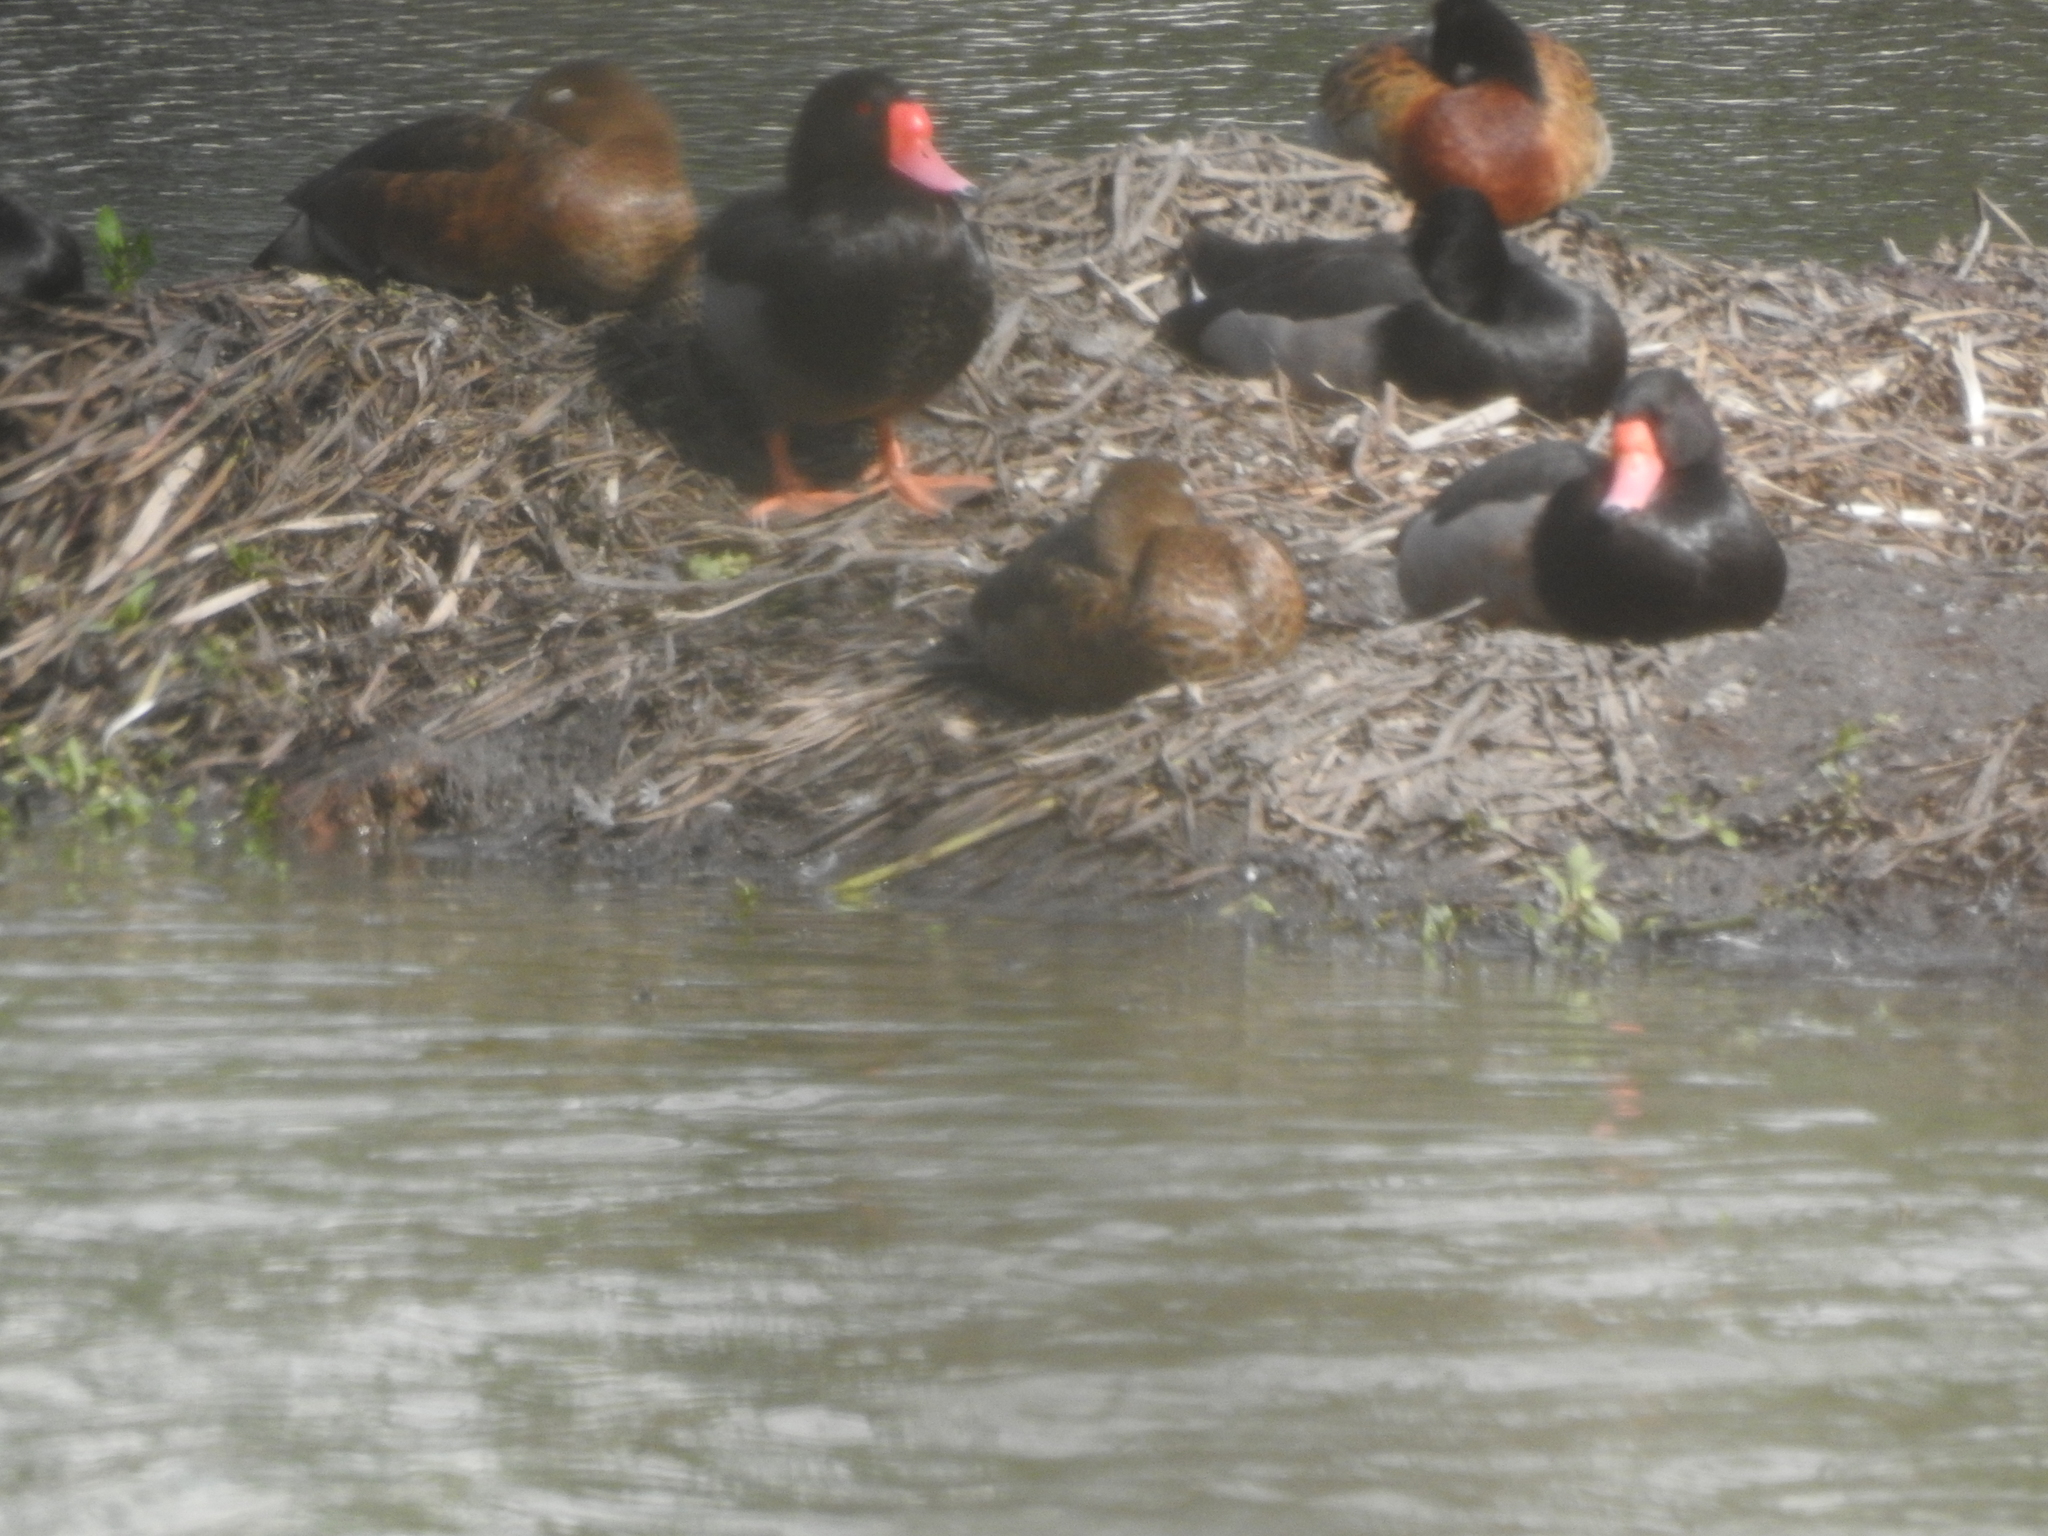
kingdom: Animalia
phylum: Chordata
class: Aves
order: Anseriformes
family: Anatidae
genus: Netta
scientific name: Netta peposaca
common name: Rosy-billed pochard
